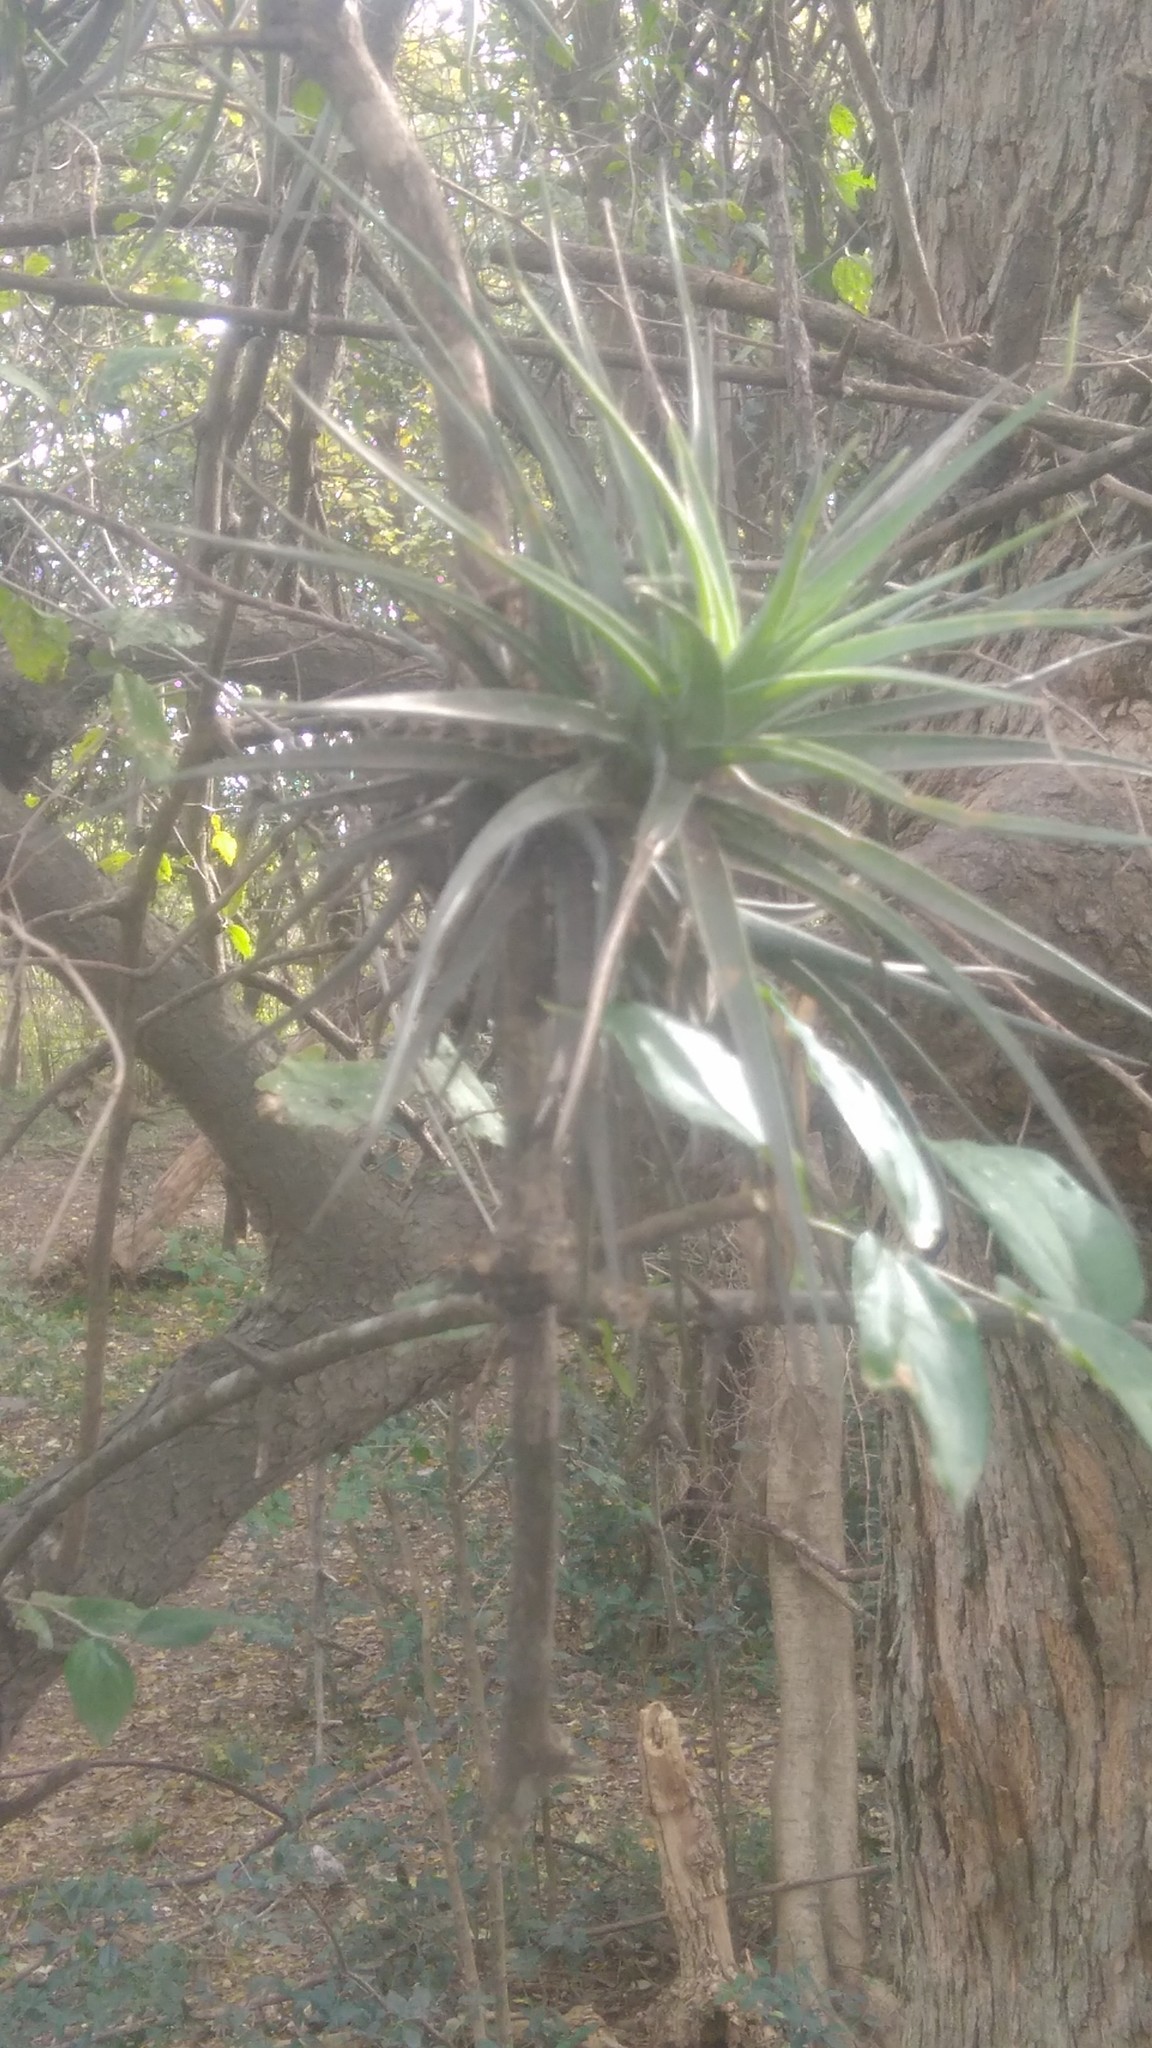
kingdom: Plantae
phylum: Tracheophyta
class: Liliopsida
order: Poales
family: Bromeliaceae
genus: Tillandsia
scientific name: Tillandsia aeranthos
